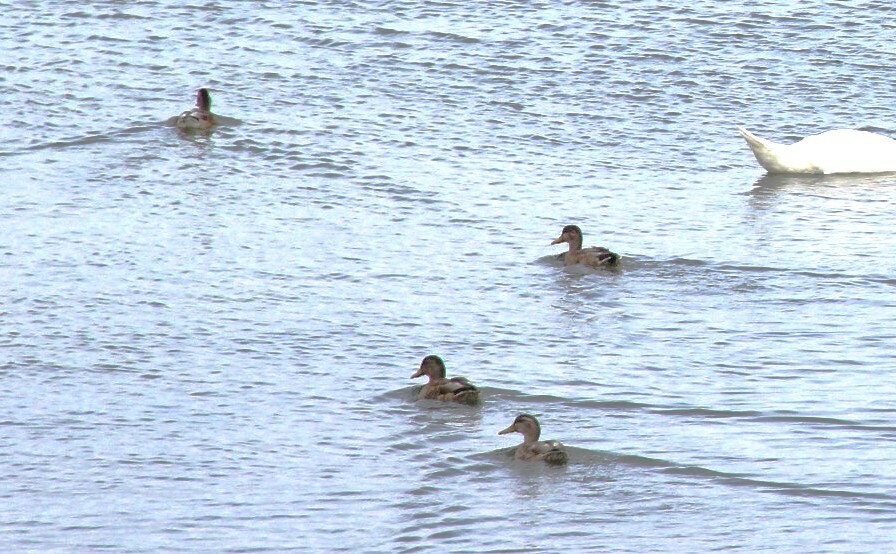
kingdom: Animalia
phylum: Chordata
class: Aves
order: Anseriformes
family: Anatidae
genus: Anas
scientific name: Anas platyrhynchos
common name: Mallard
